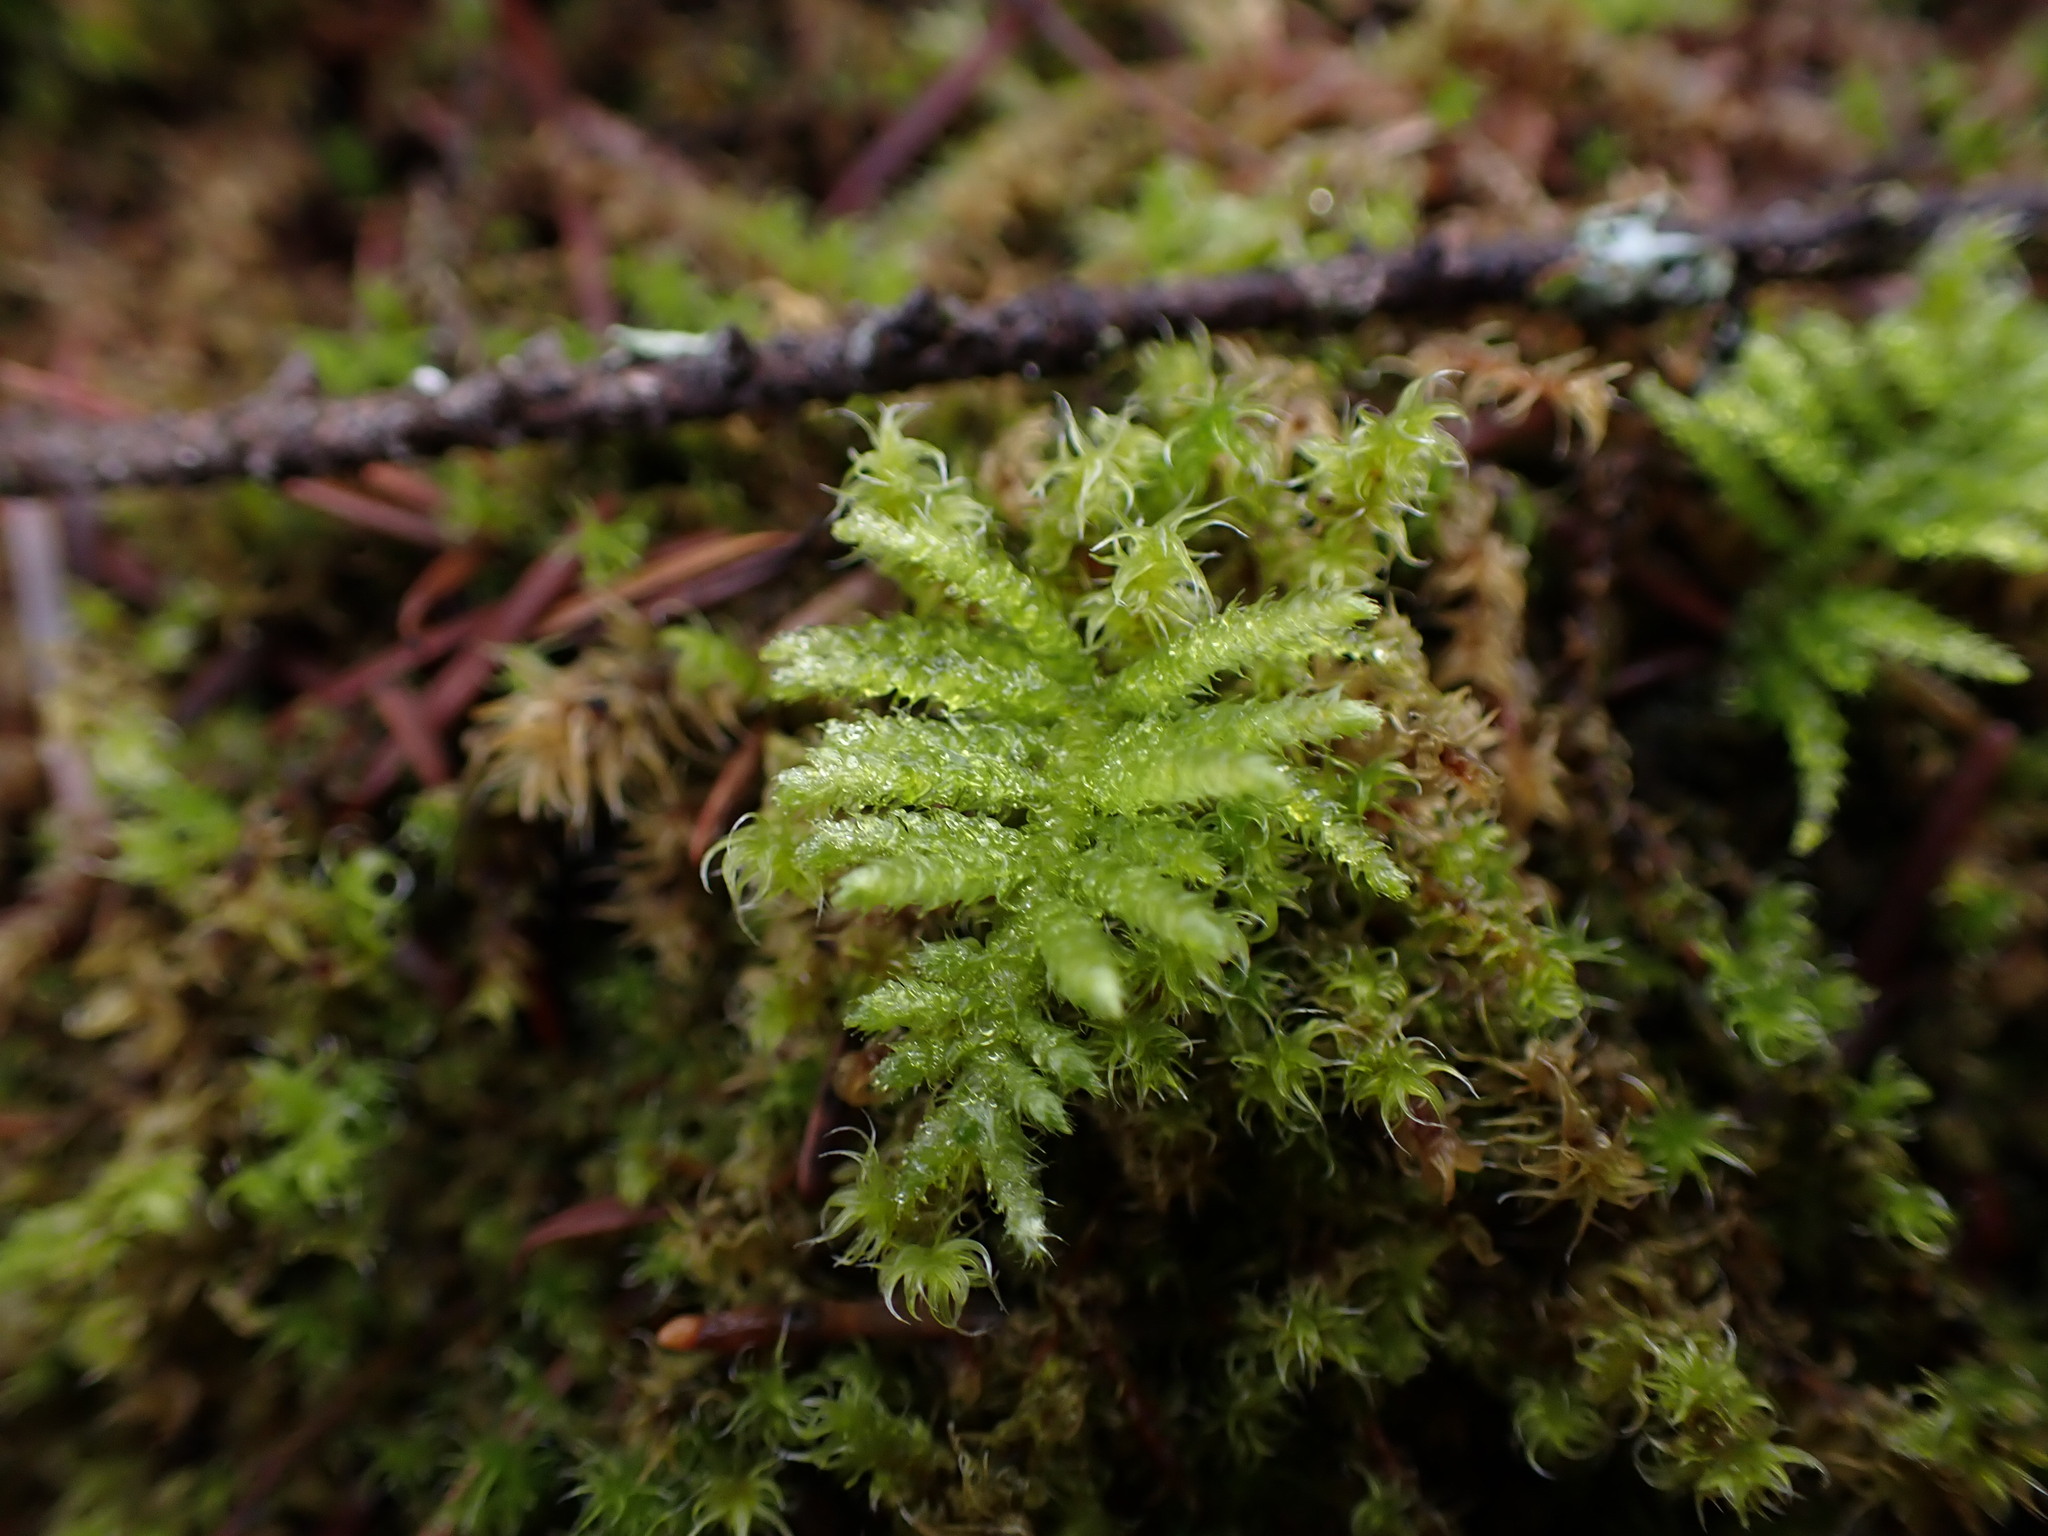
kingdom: Plantae
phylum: Bryophyta
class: Bryopsida
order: Hypnales
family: Brachytheciaceae
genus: Kindbergia
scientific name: Kindbergia oregana
